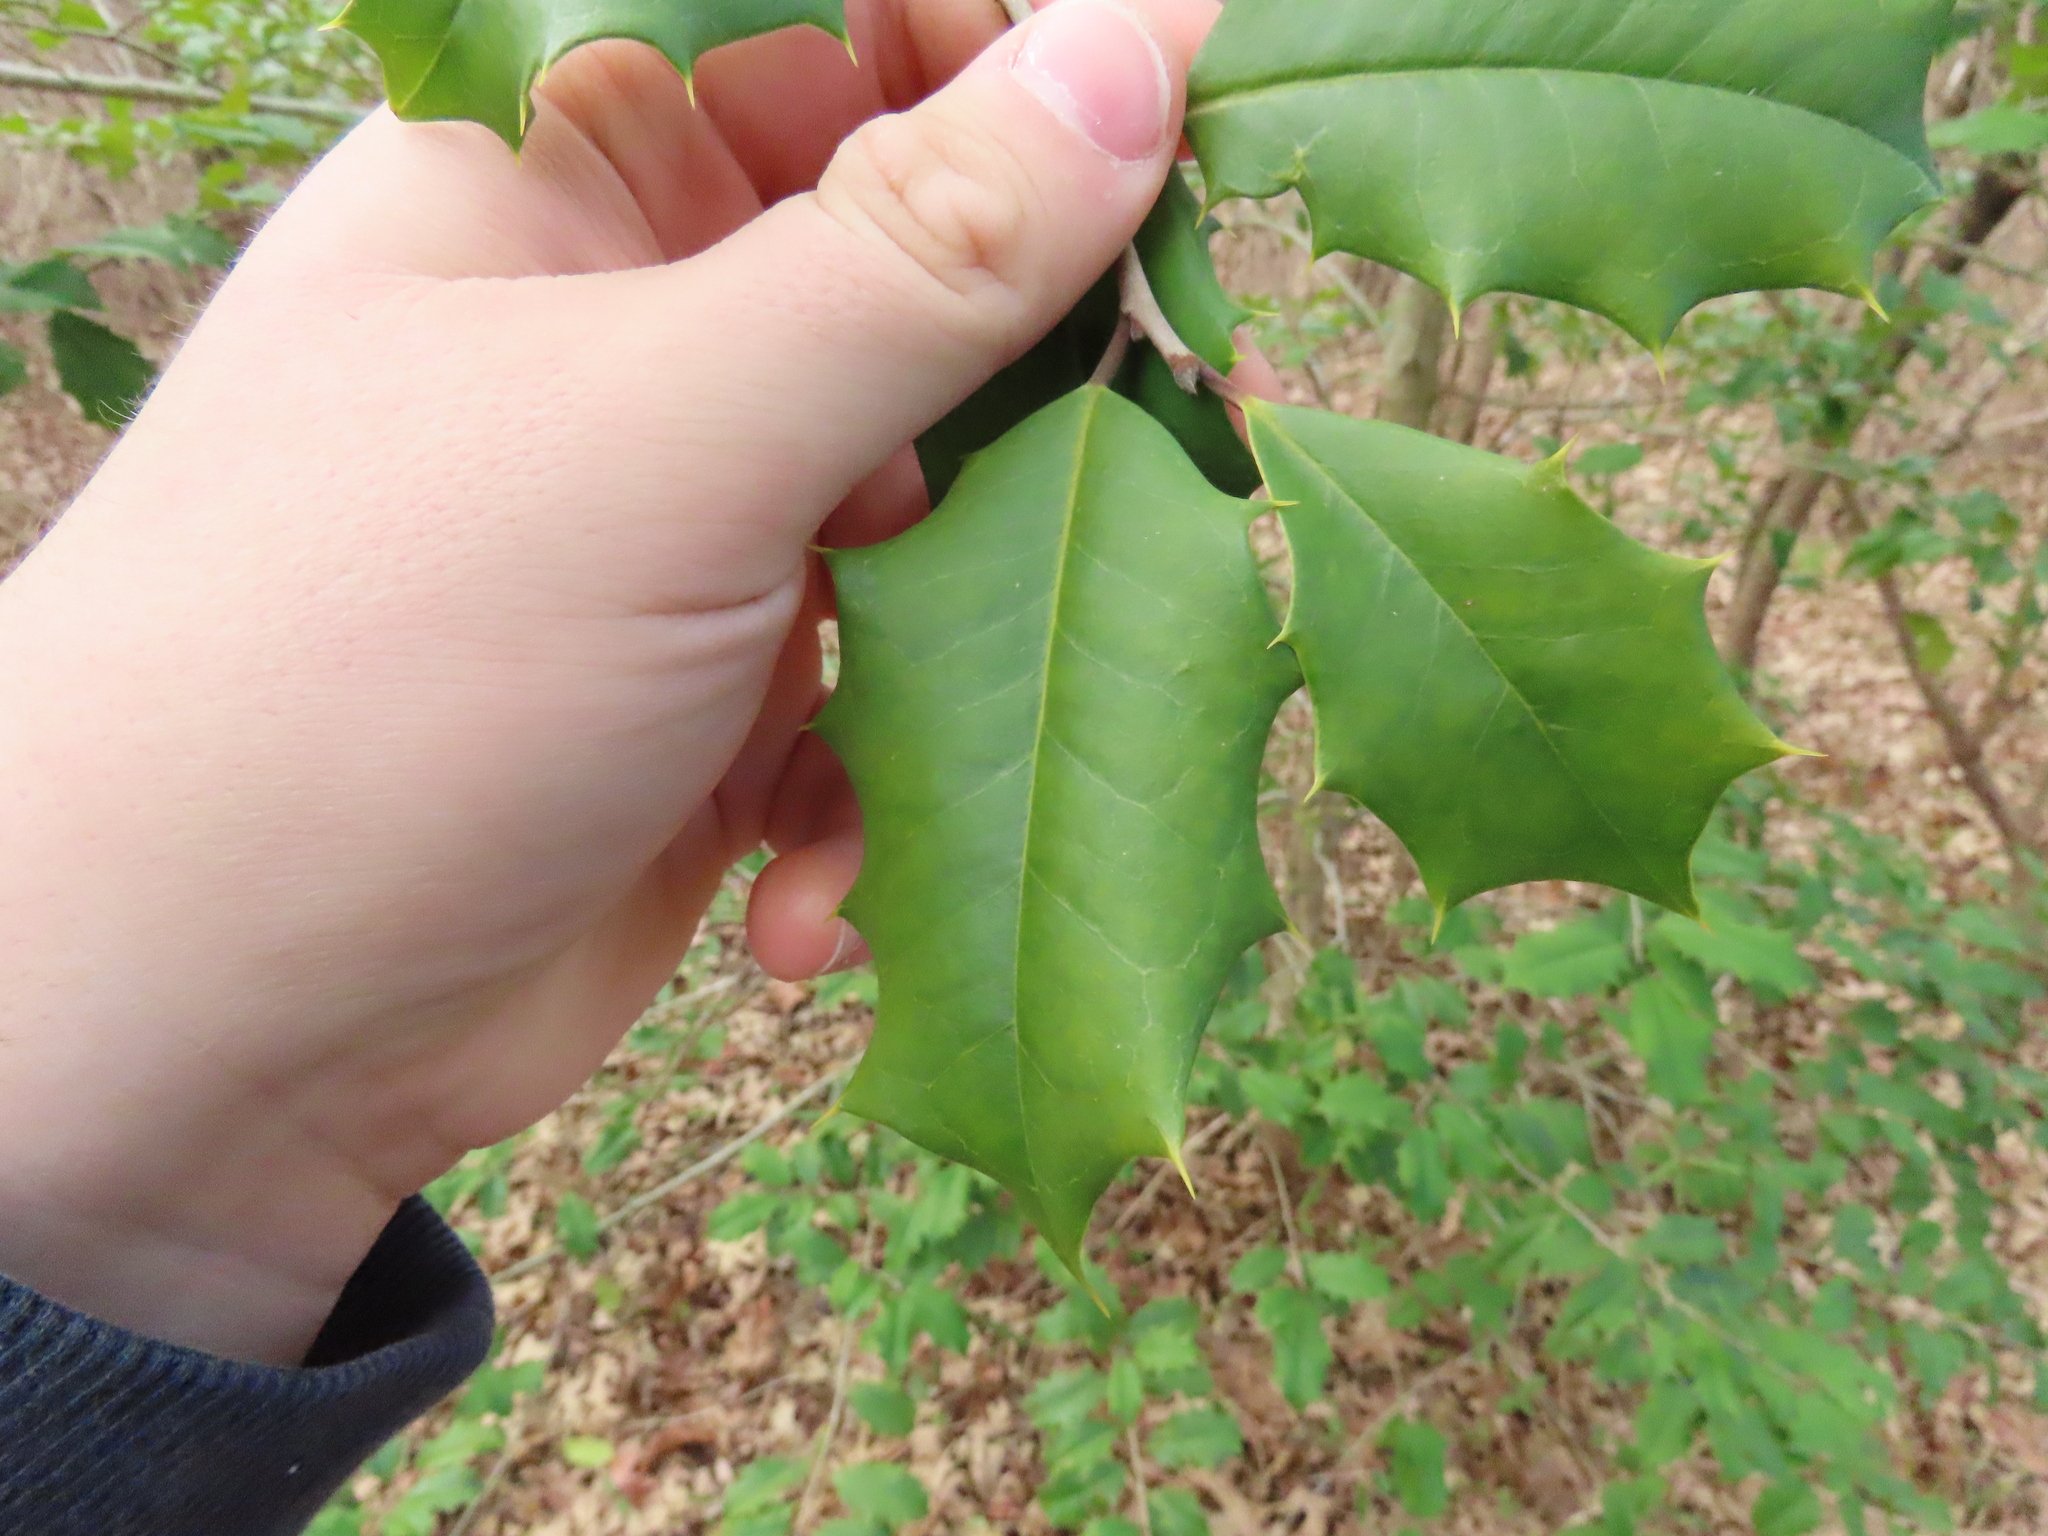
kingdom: Plantae
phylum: Tracheophyta
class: Magnoliopsida
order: Aquifoliales
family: Aquifoliaceae
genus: Ilex
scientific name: Ilex opaca
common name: American holly
